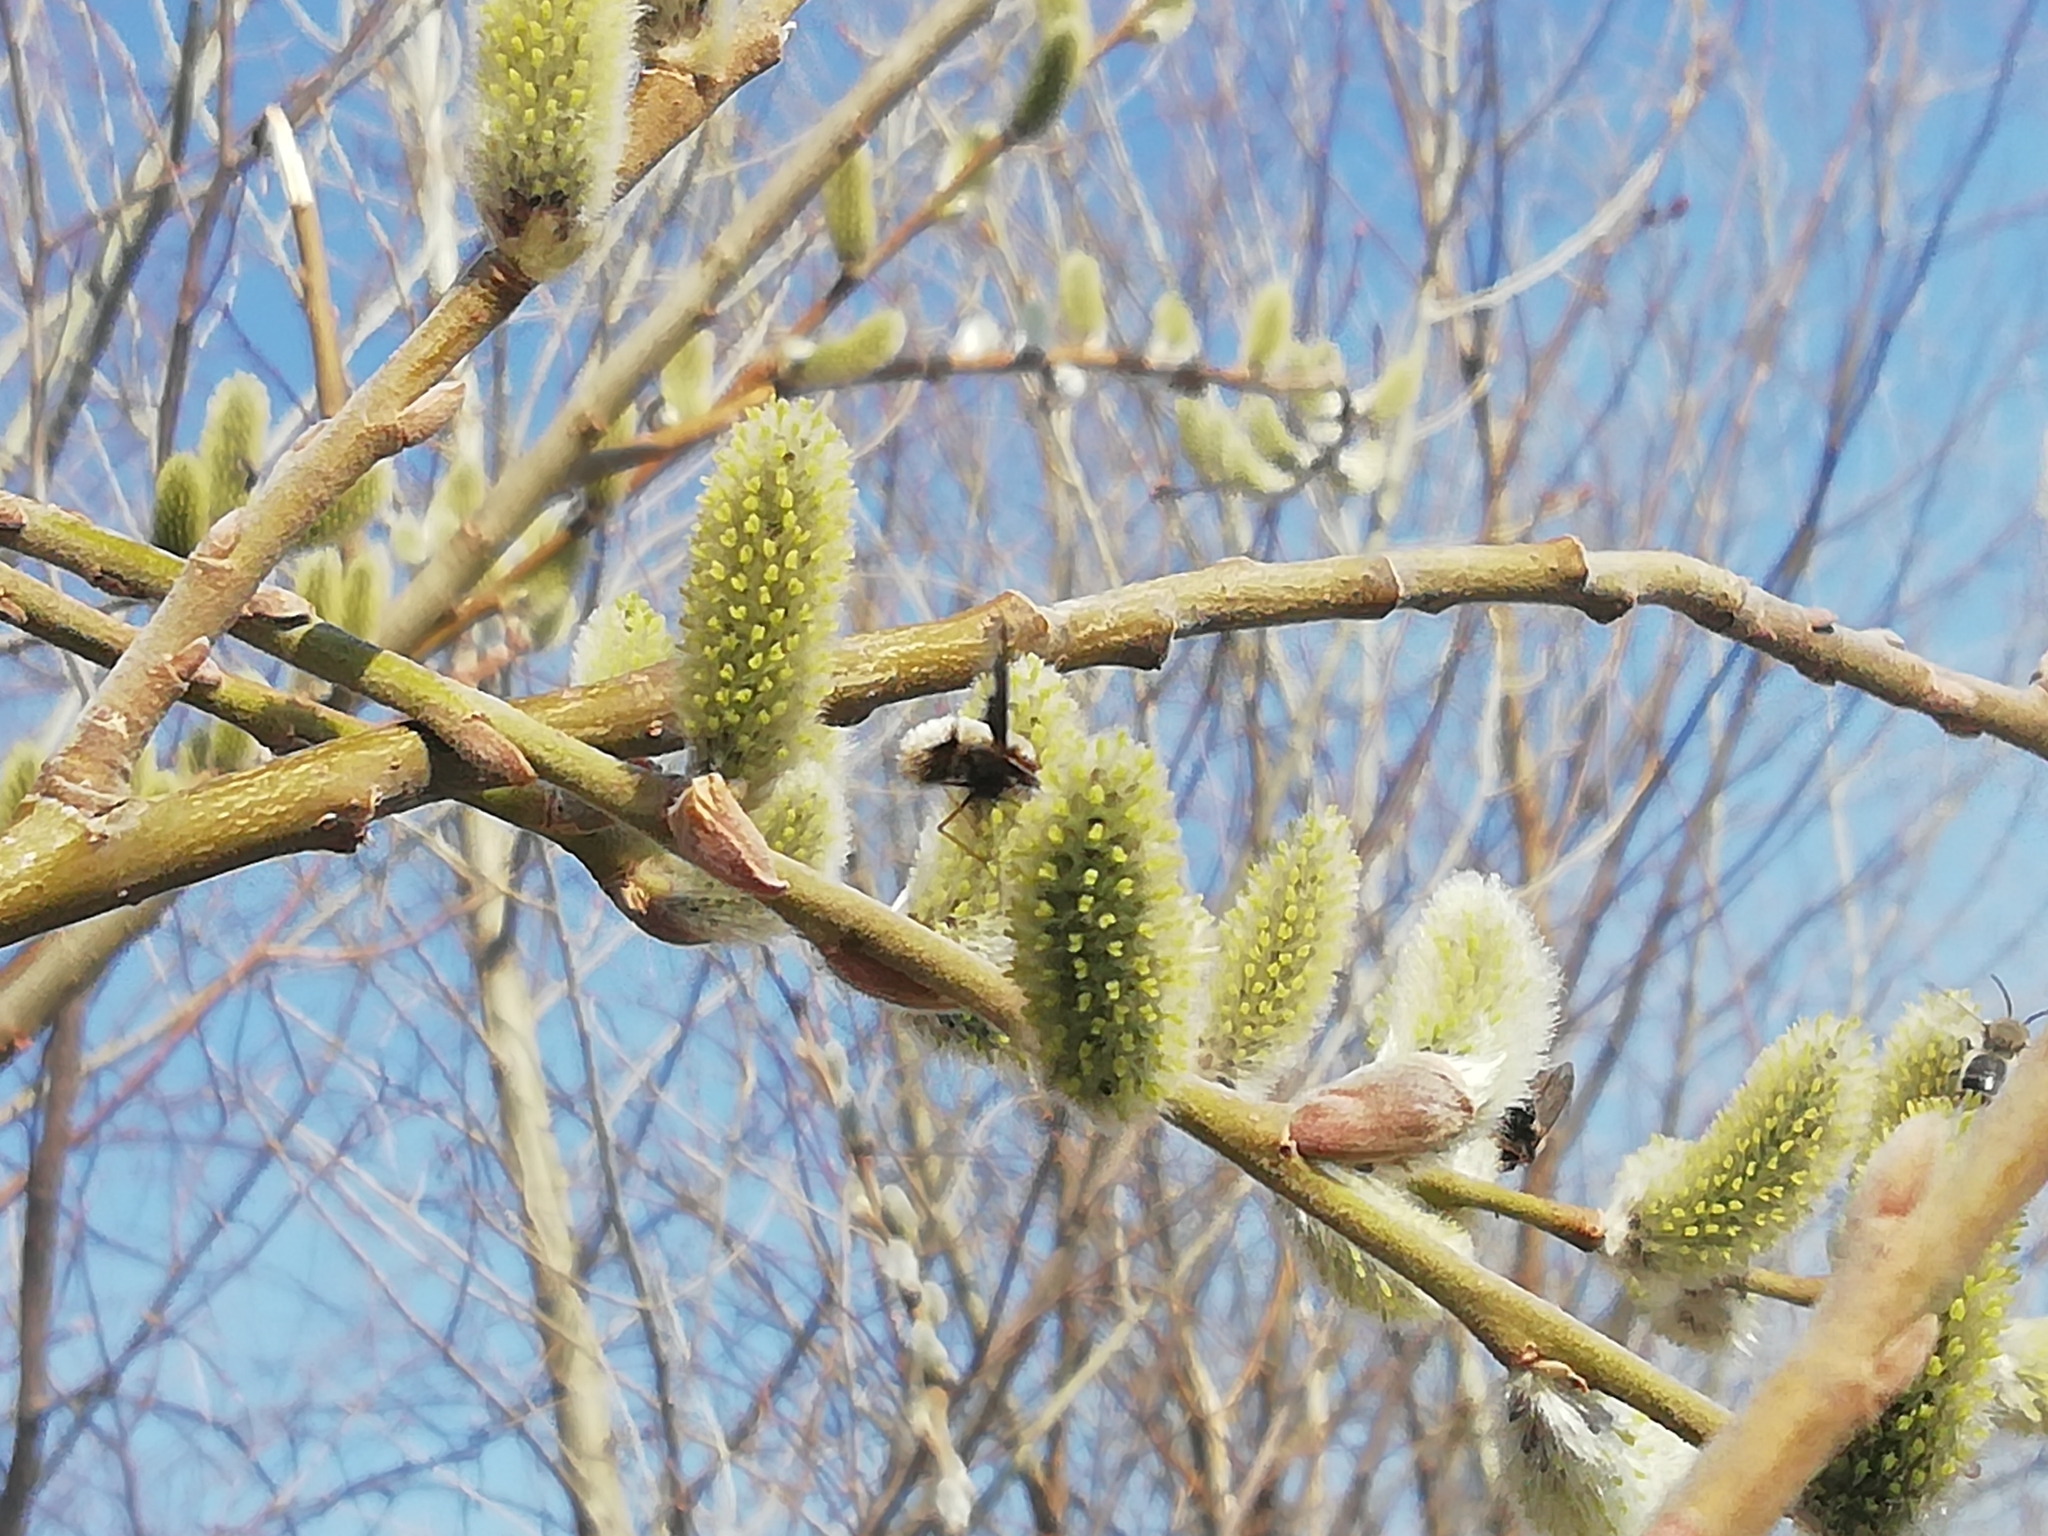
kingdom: Animalia
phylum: Arthropoda
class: Insecta
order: Diptera
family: Bombyliidae
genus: Bombylius
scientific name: Bombylius major
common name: Bee fly
